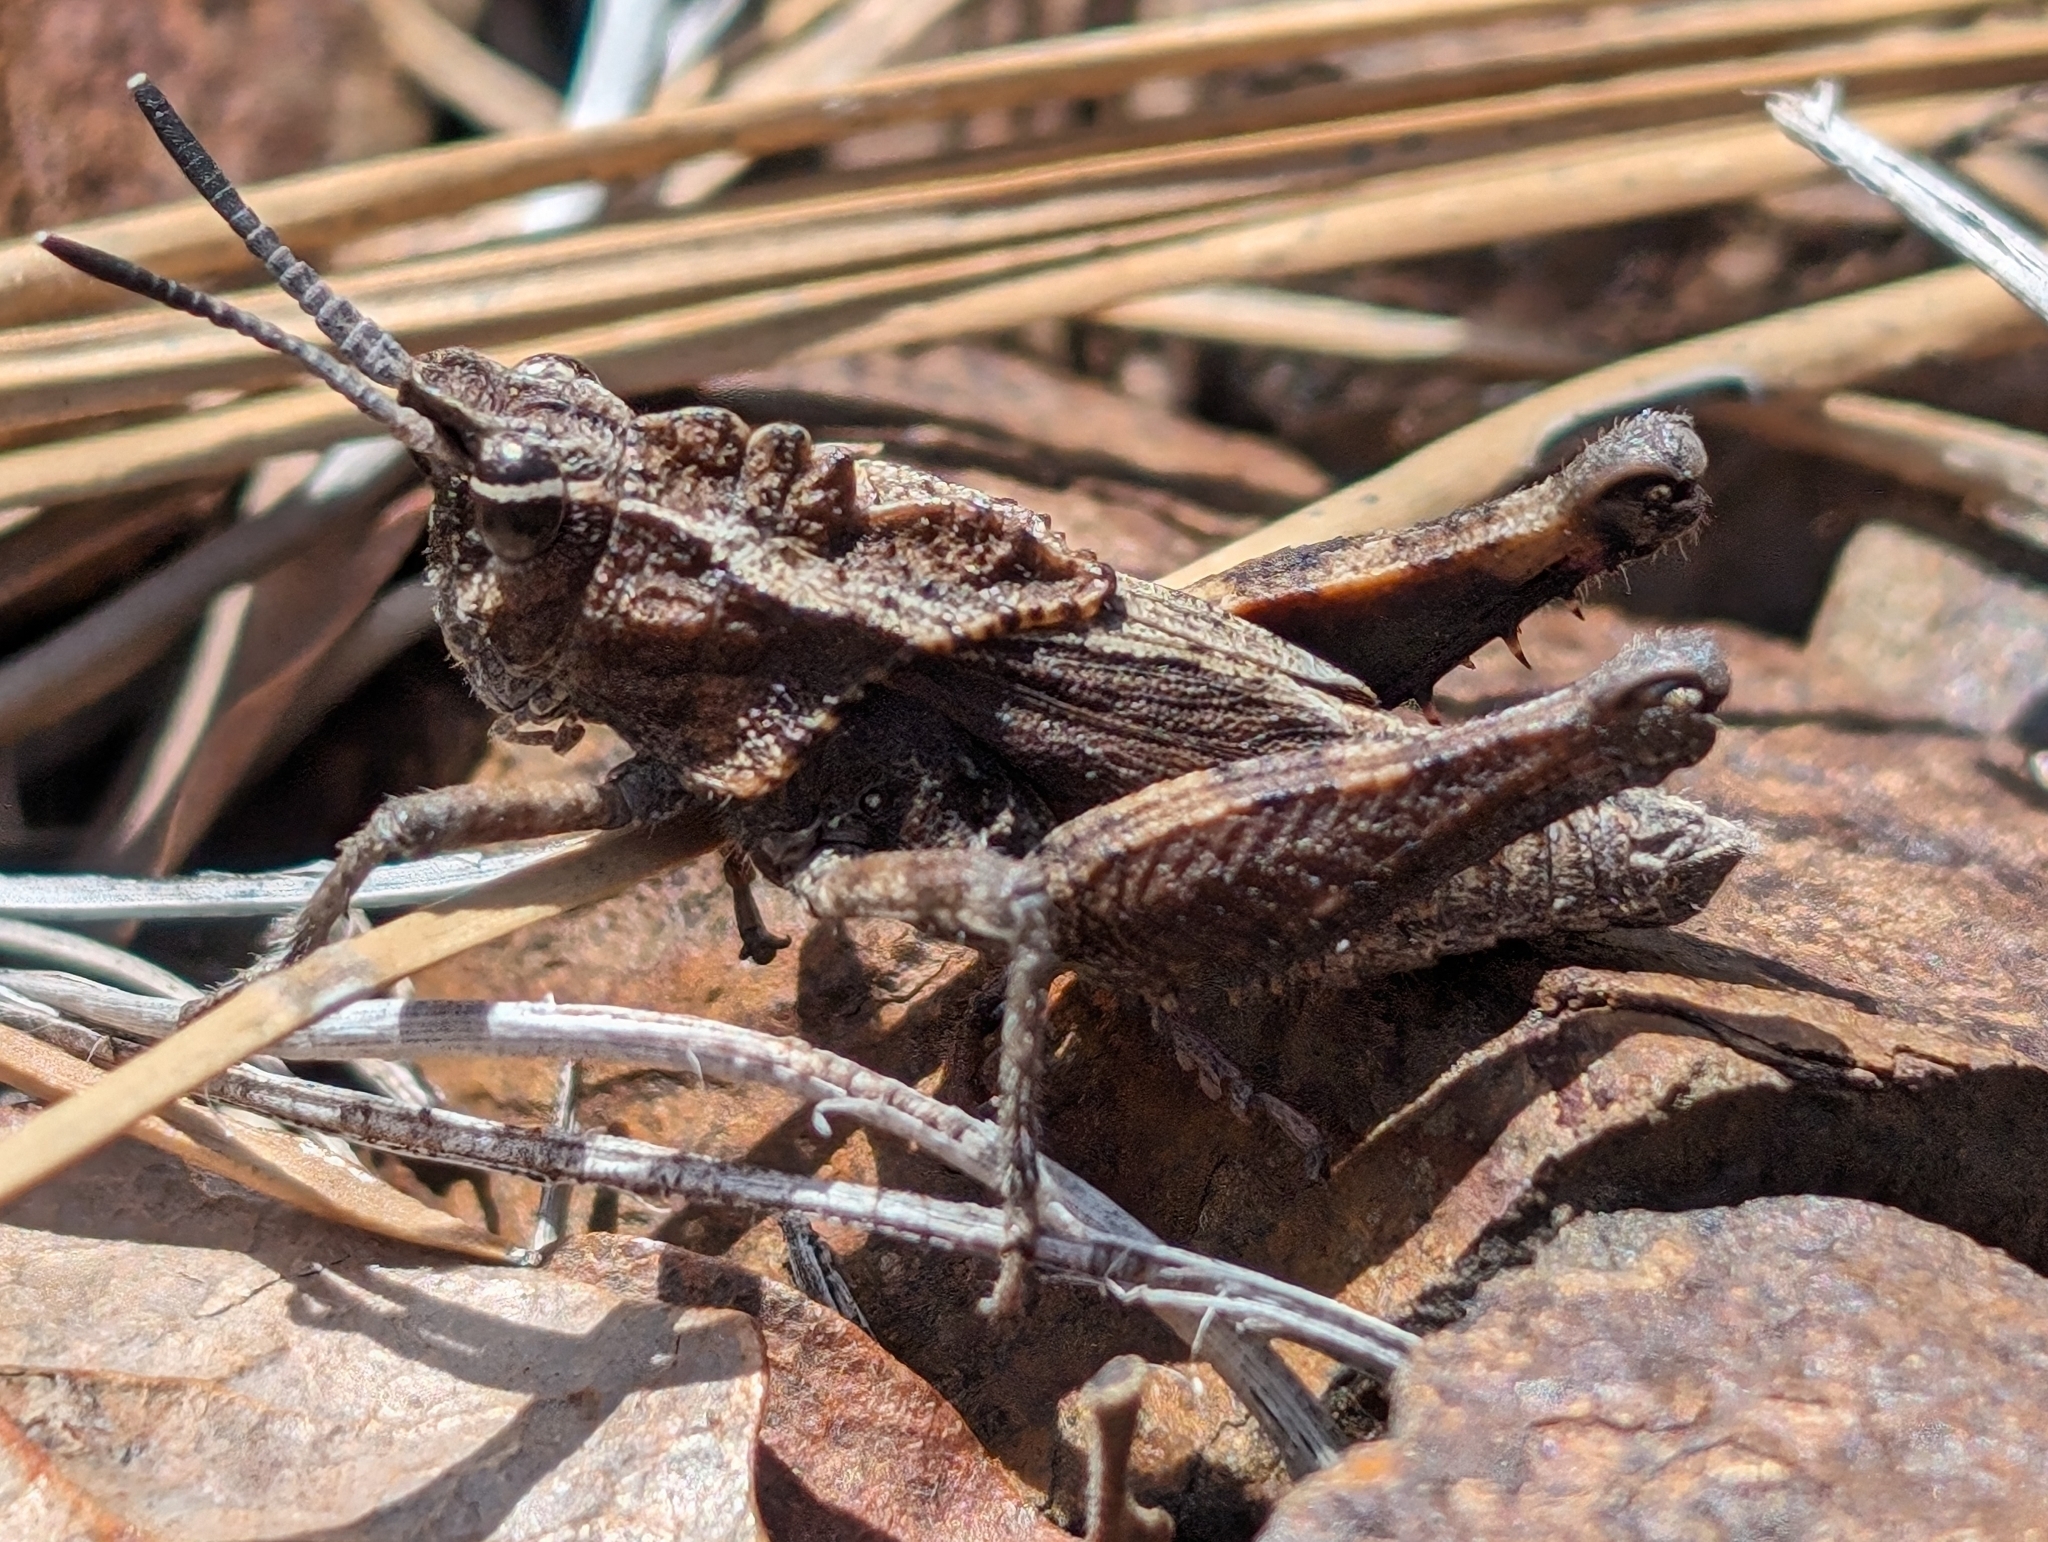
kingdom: Animalia
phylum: Arthropoda
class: Insecta
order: Orthoptera
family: Romaleidae
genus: Dracotettix
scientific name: Dracotettix monstrosus
